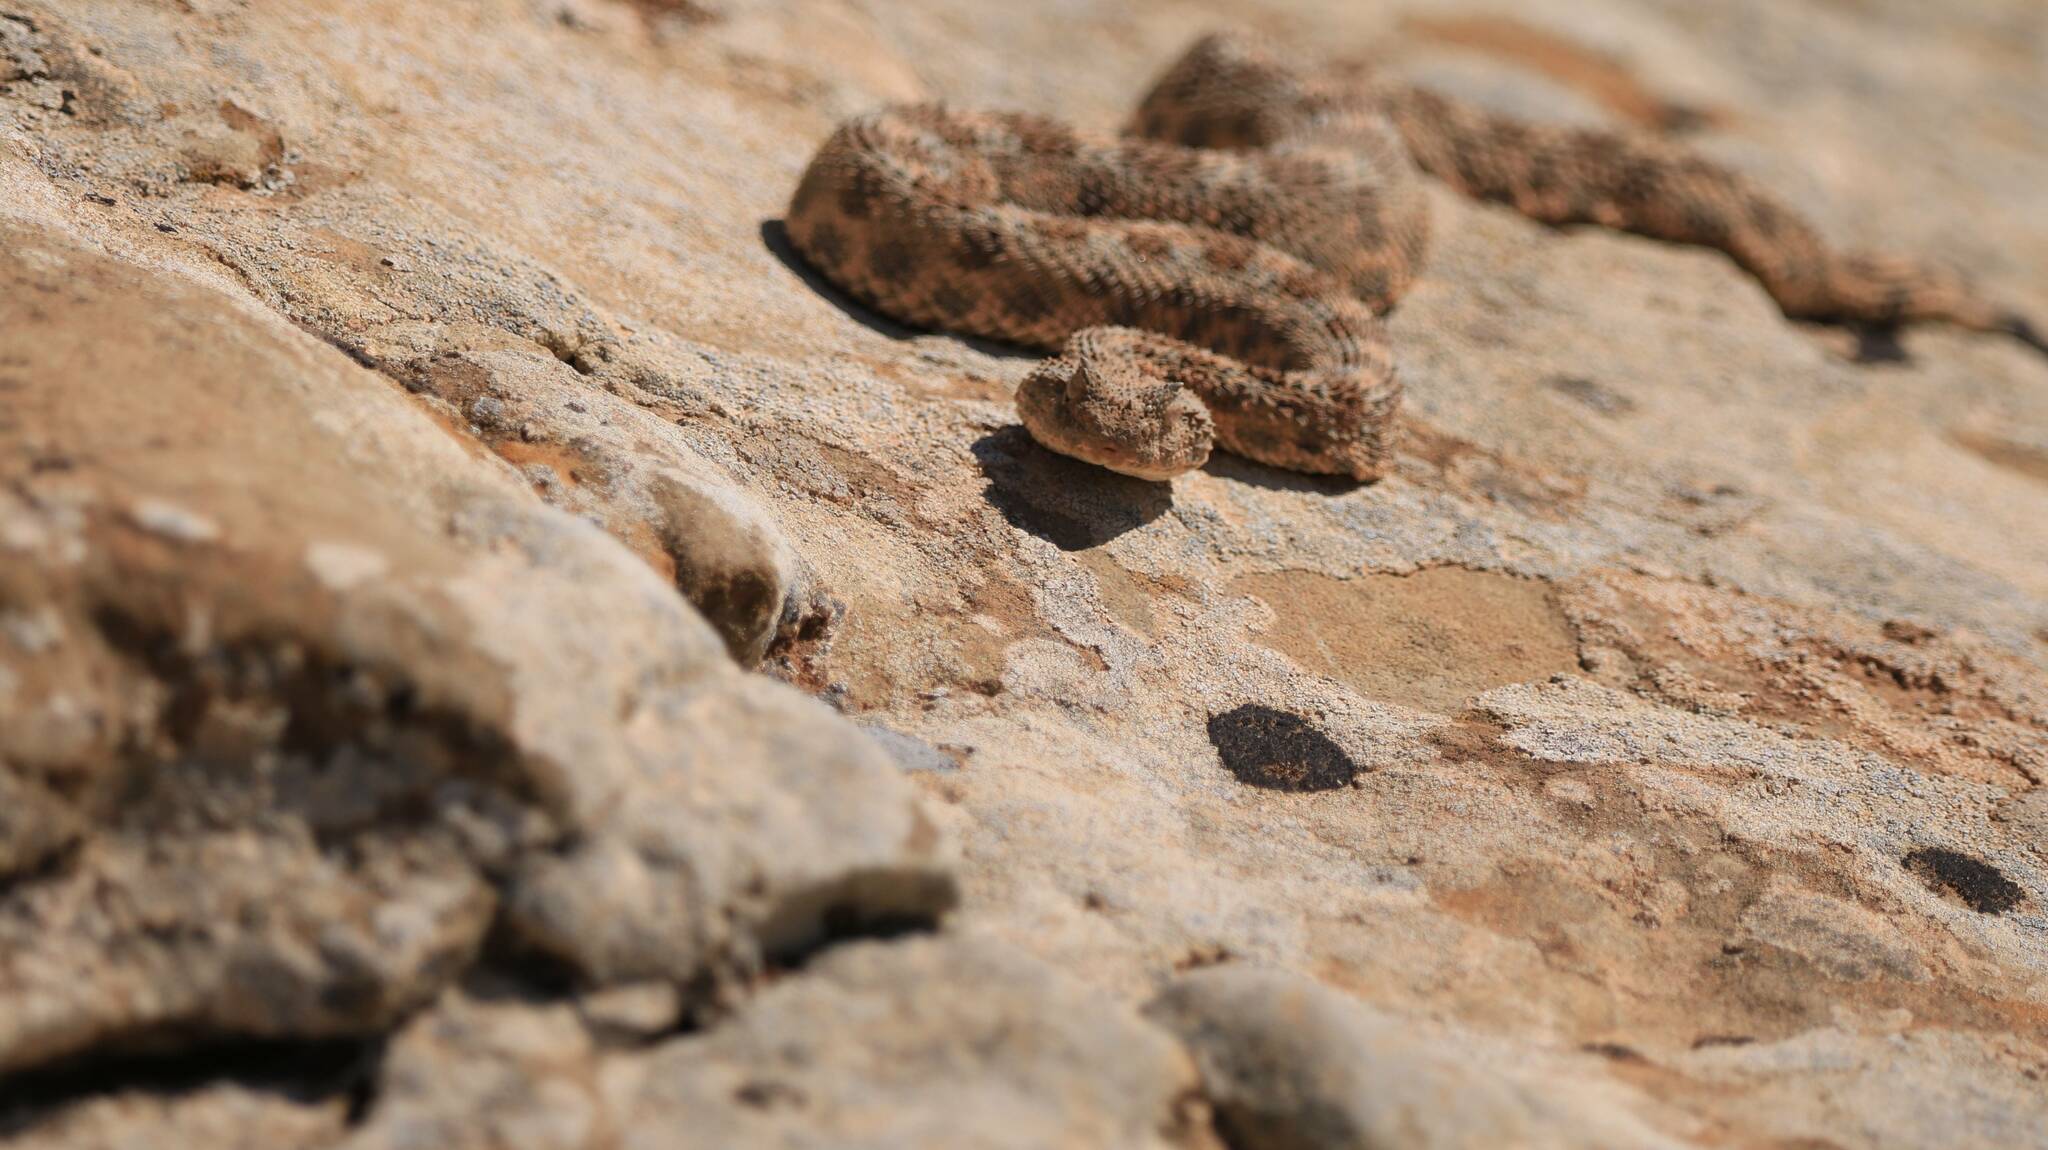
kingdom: Animalia
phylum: Chordata
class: Squamata
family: Viperidae
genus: Cerastes
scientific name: Cerastes cerastes
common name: Desert horned viper
